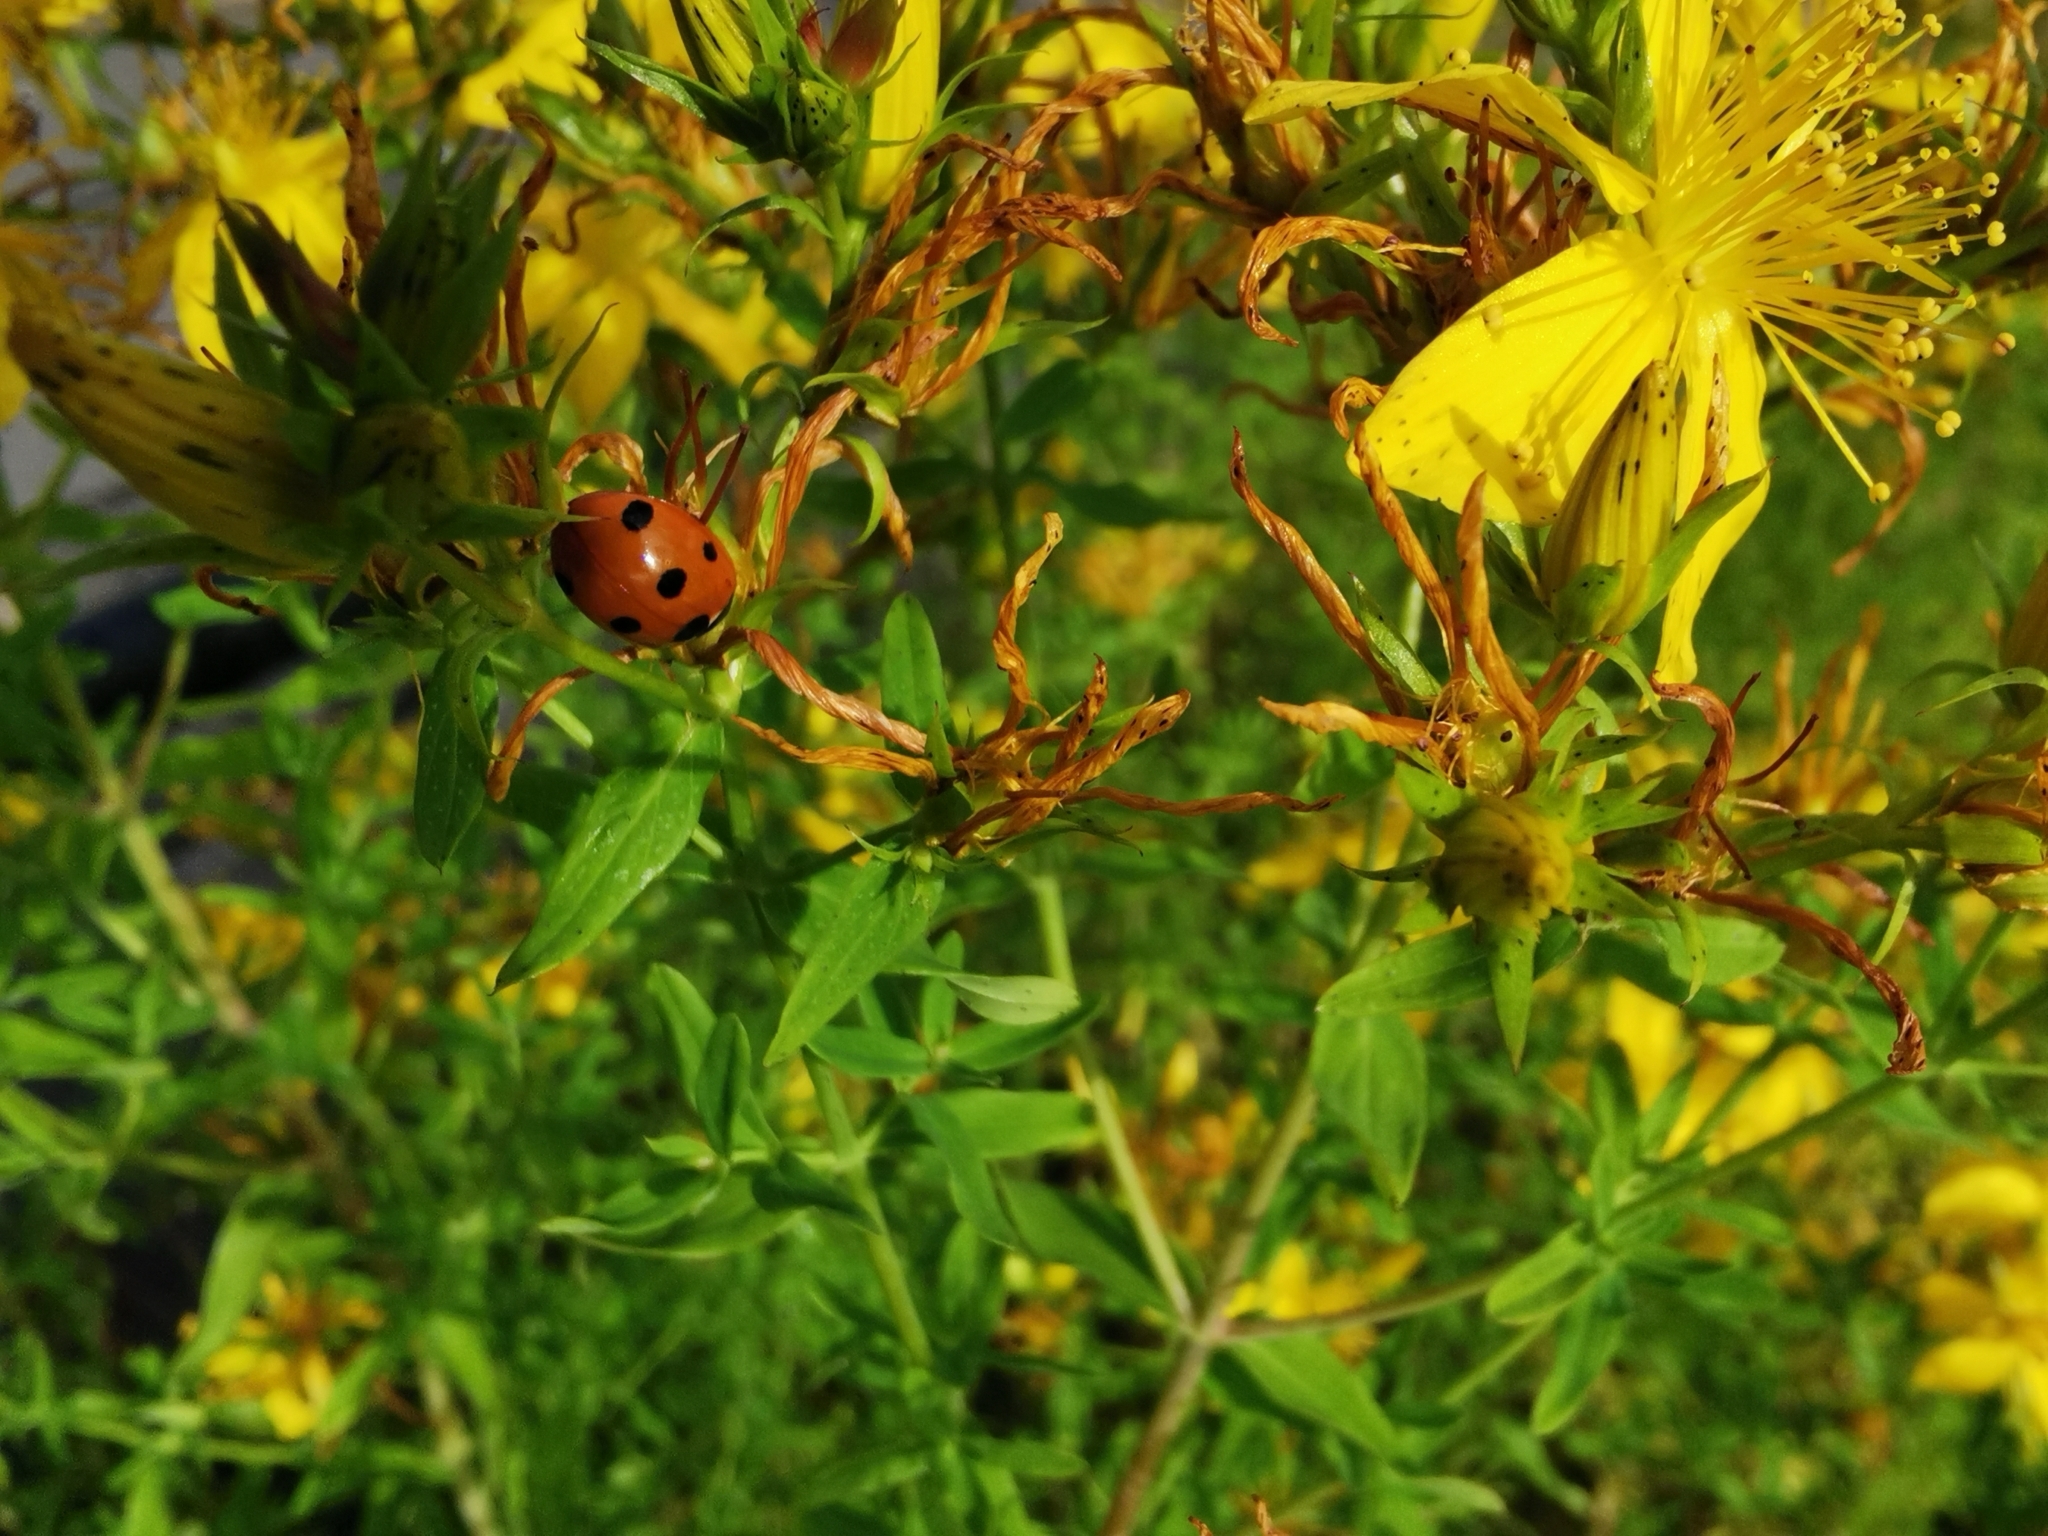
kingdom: Plantae
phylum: Tracheophyta
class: Magnoliopsida
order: Malpighiales
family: Hypericaceae
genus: Hypericum
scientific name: Hypericum perforatum
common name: Common st. johnswort
